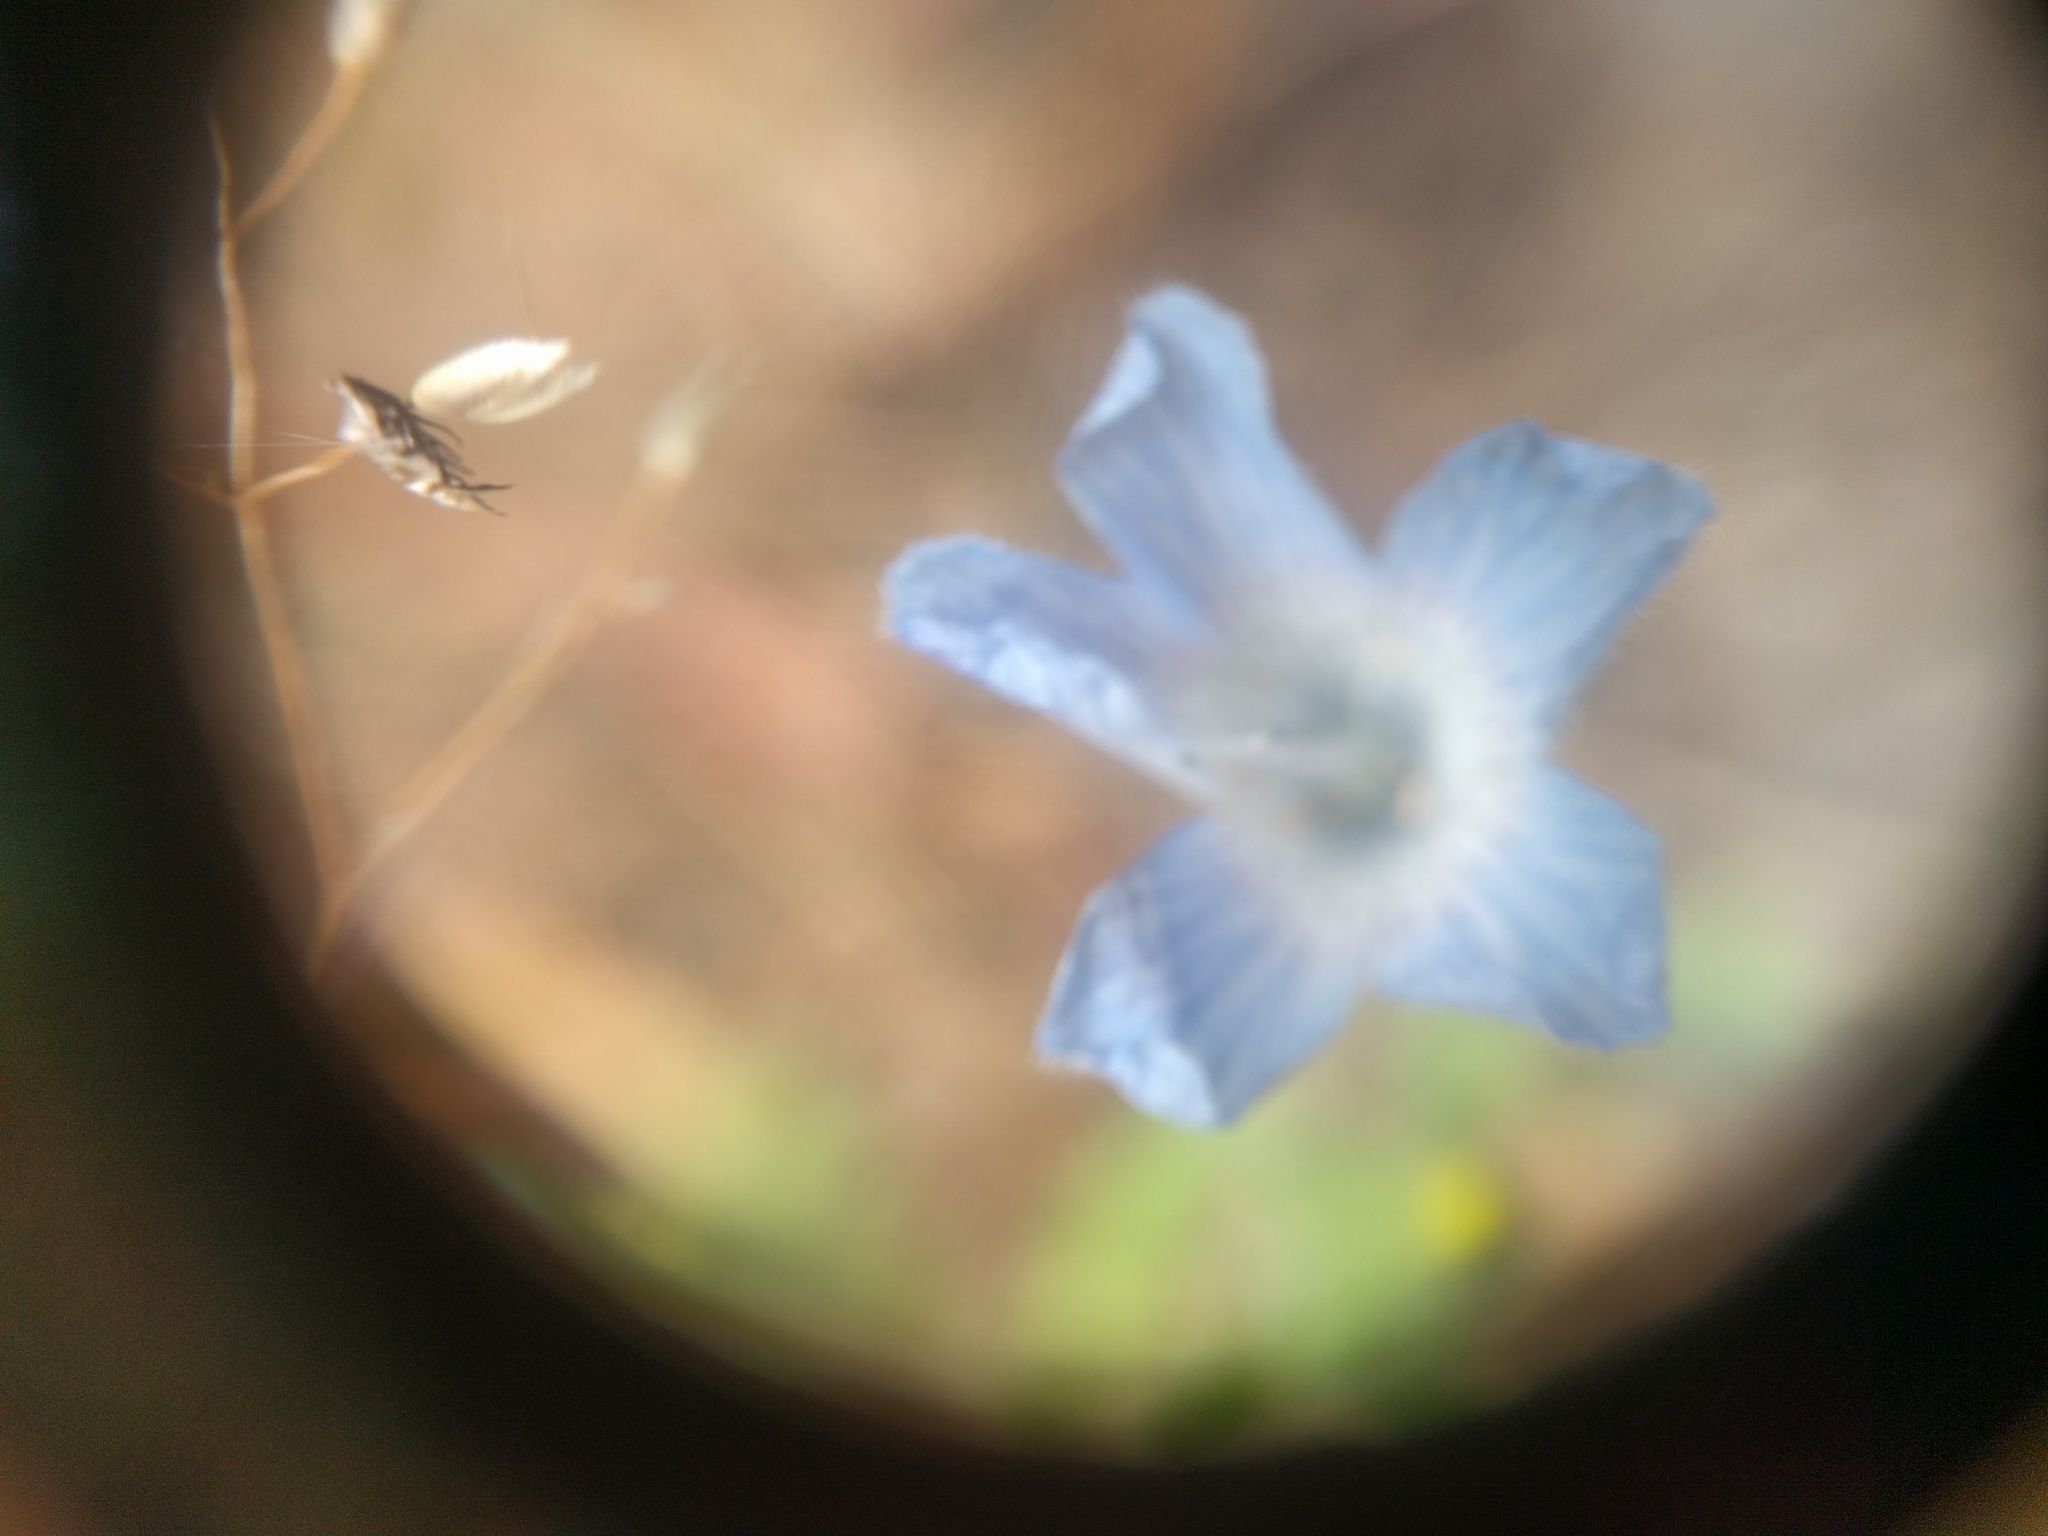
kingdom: Plantae
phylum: Tracheophyta
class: Magnoliopsida
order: Boraginales
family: Hydrophyllaceae
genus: Nemophila
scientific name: Nemophila menziesii
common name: Baby's-blue-eyes
